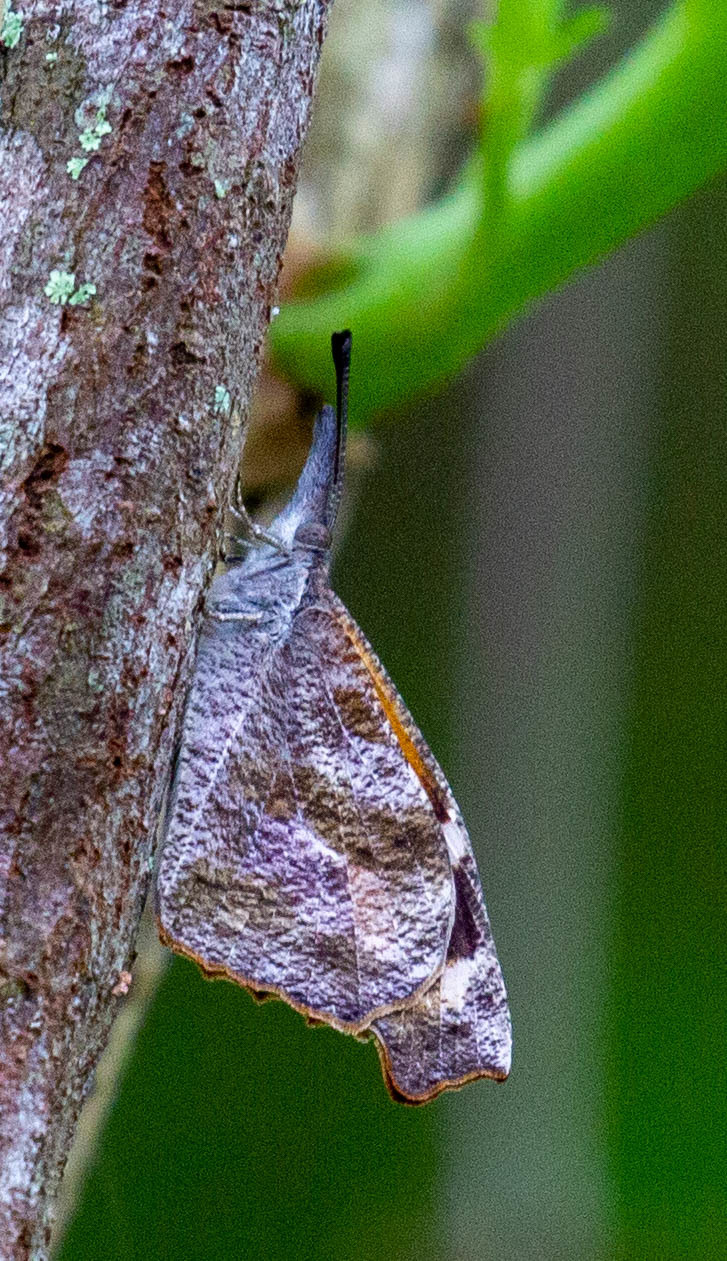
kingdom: Animalia
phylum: Arthropoda
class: Insecta
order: Lepidoptera
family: Nymphalidae
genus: Libytheana
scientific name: Libytheana carinenta
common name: American snout
